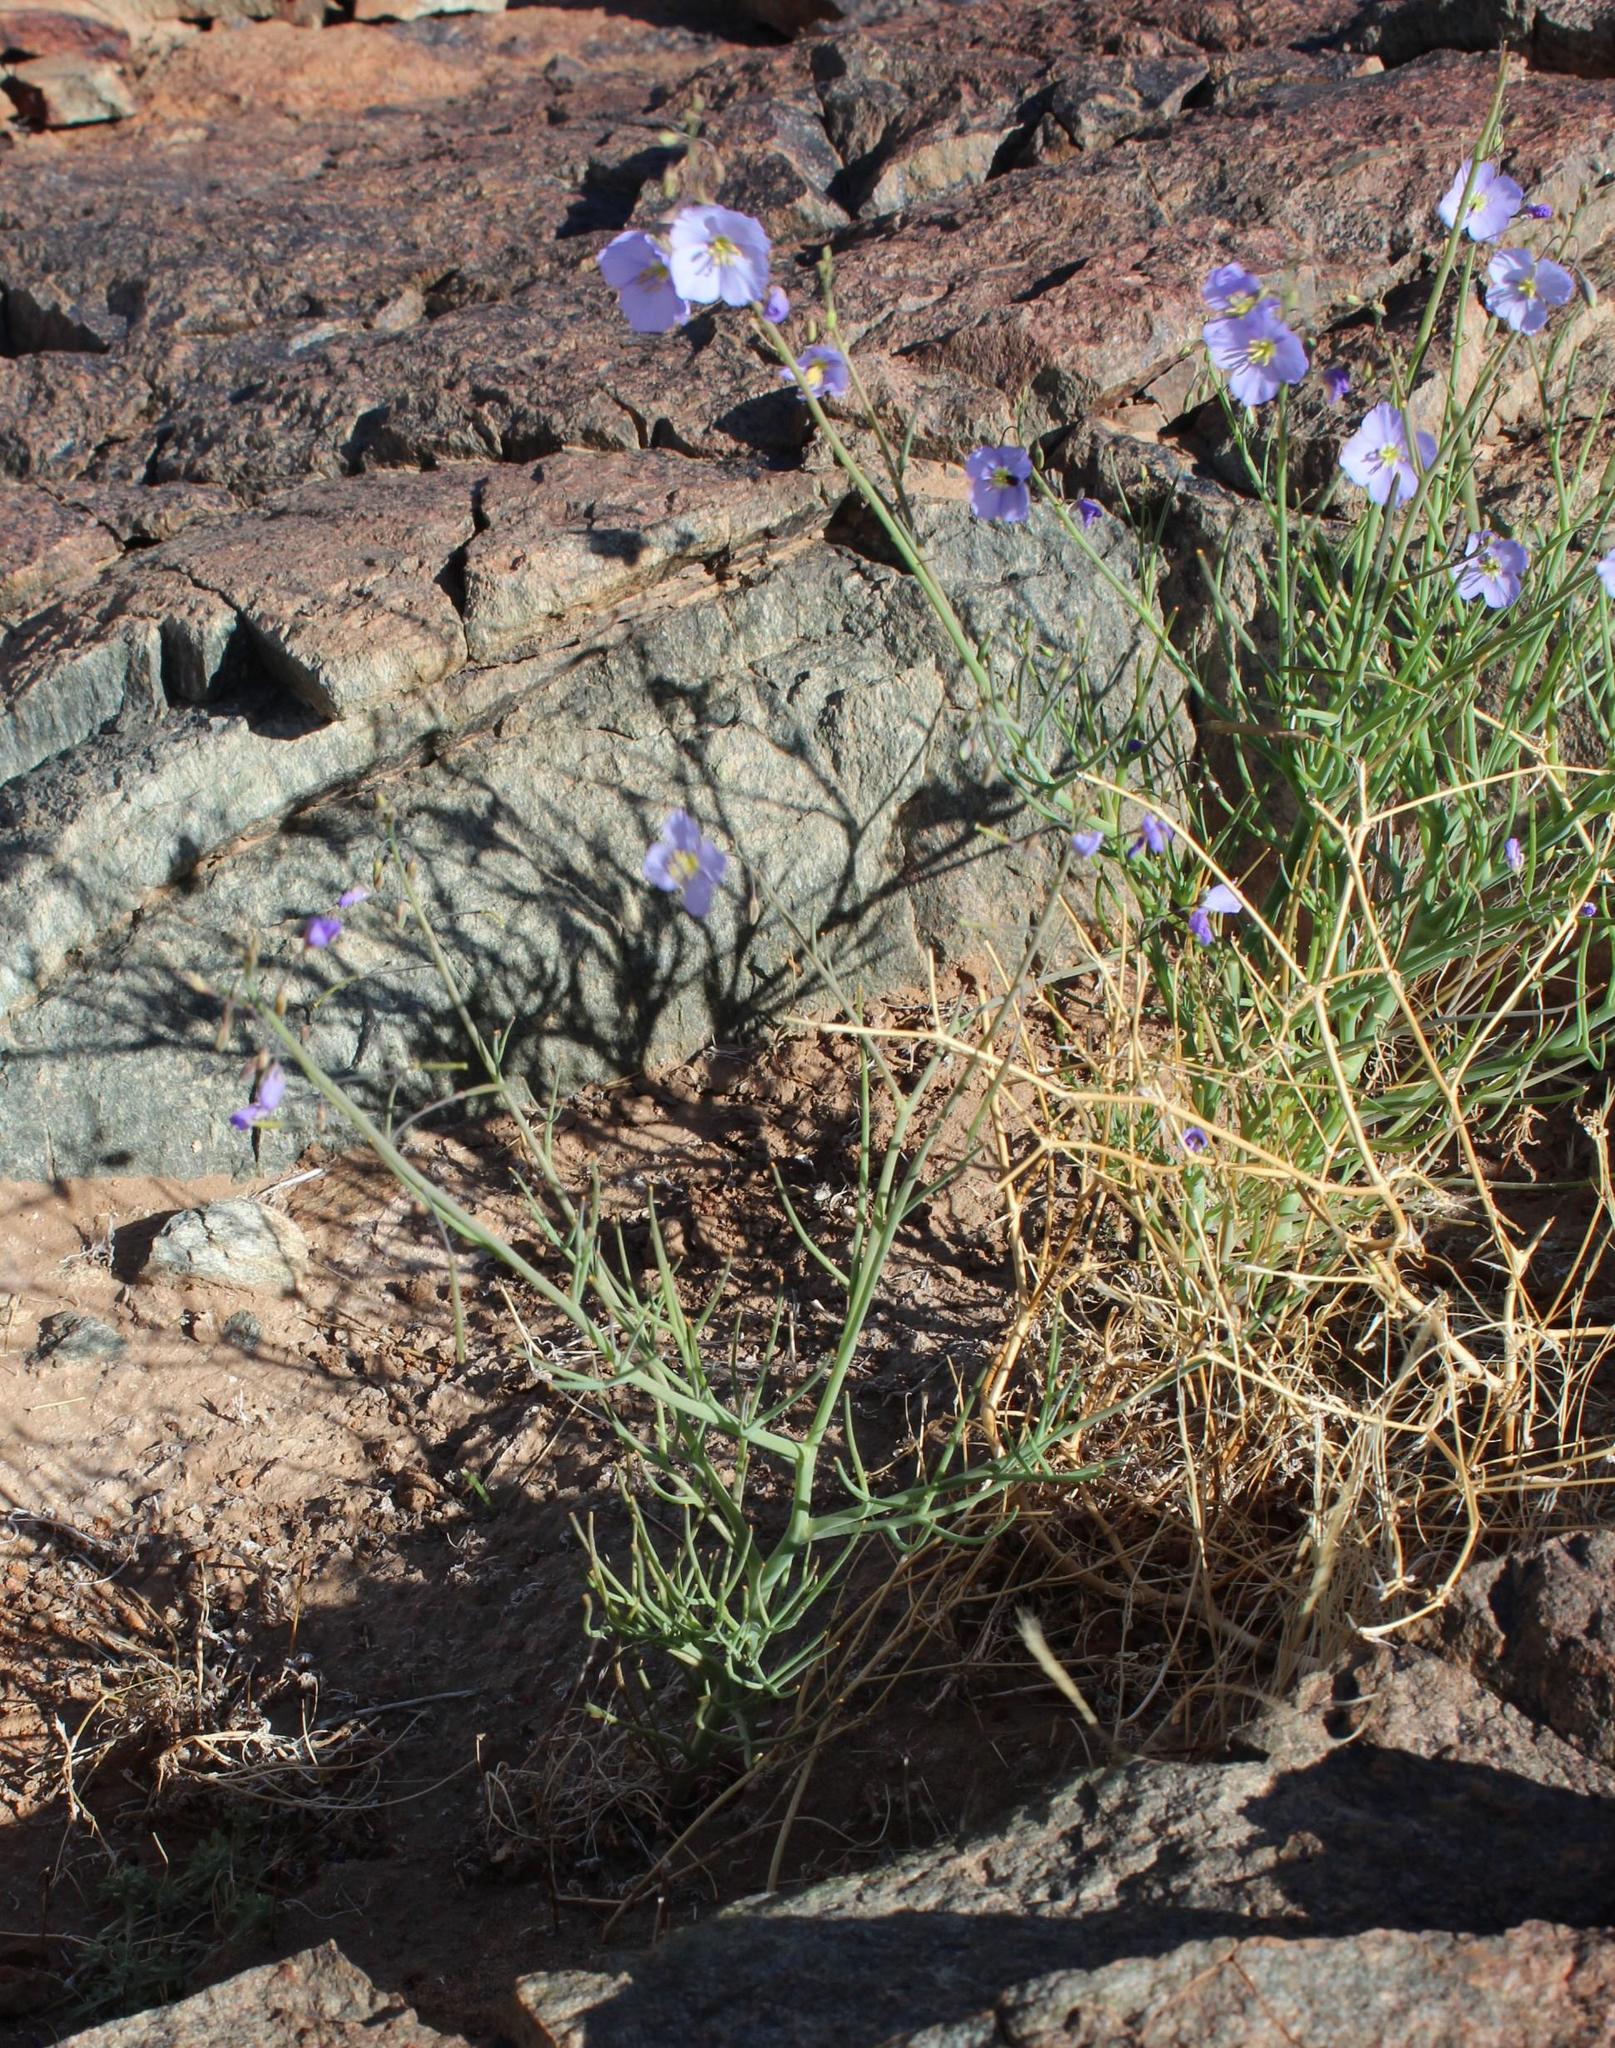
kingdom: Plantae
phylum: Tracheophyta
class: Magnoliopsida
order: Brassicales
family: Brassicaceae
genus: Heliophila
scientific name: Heliophila trifurca
